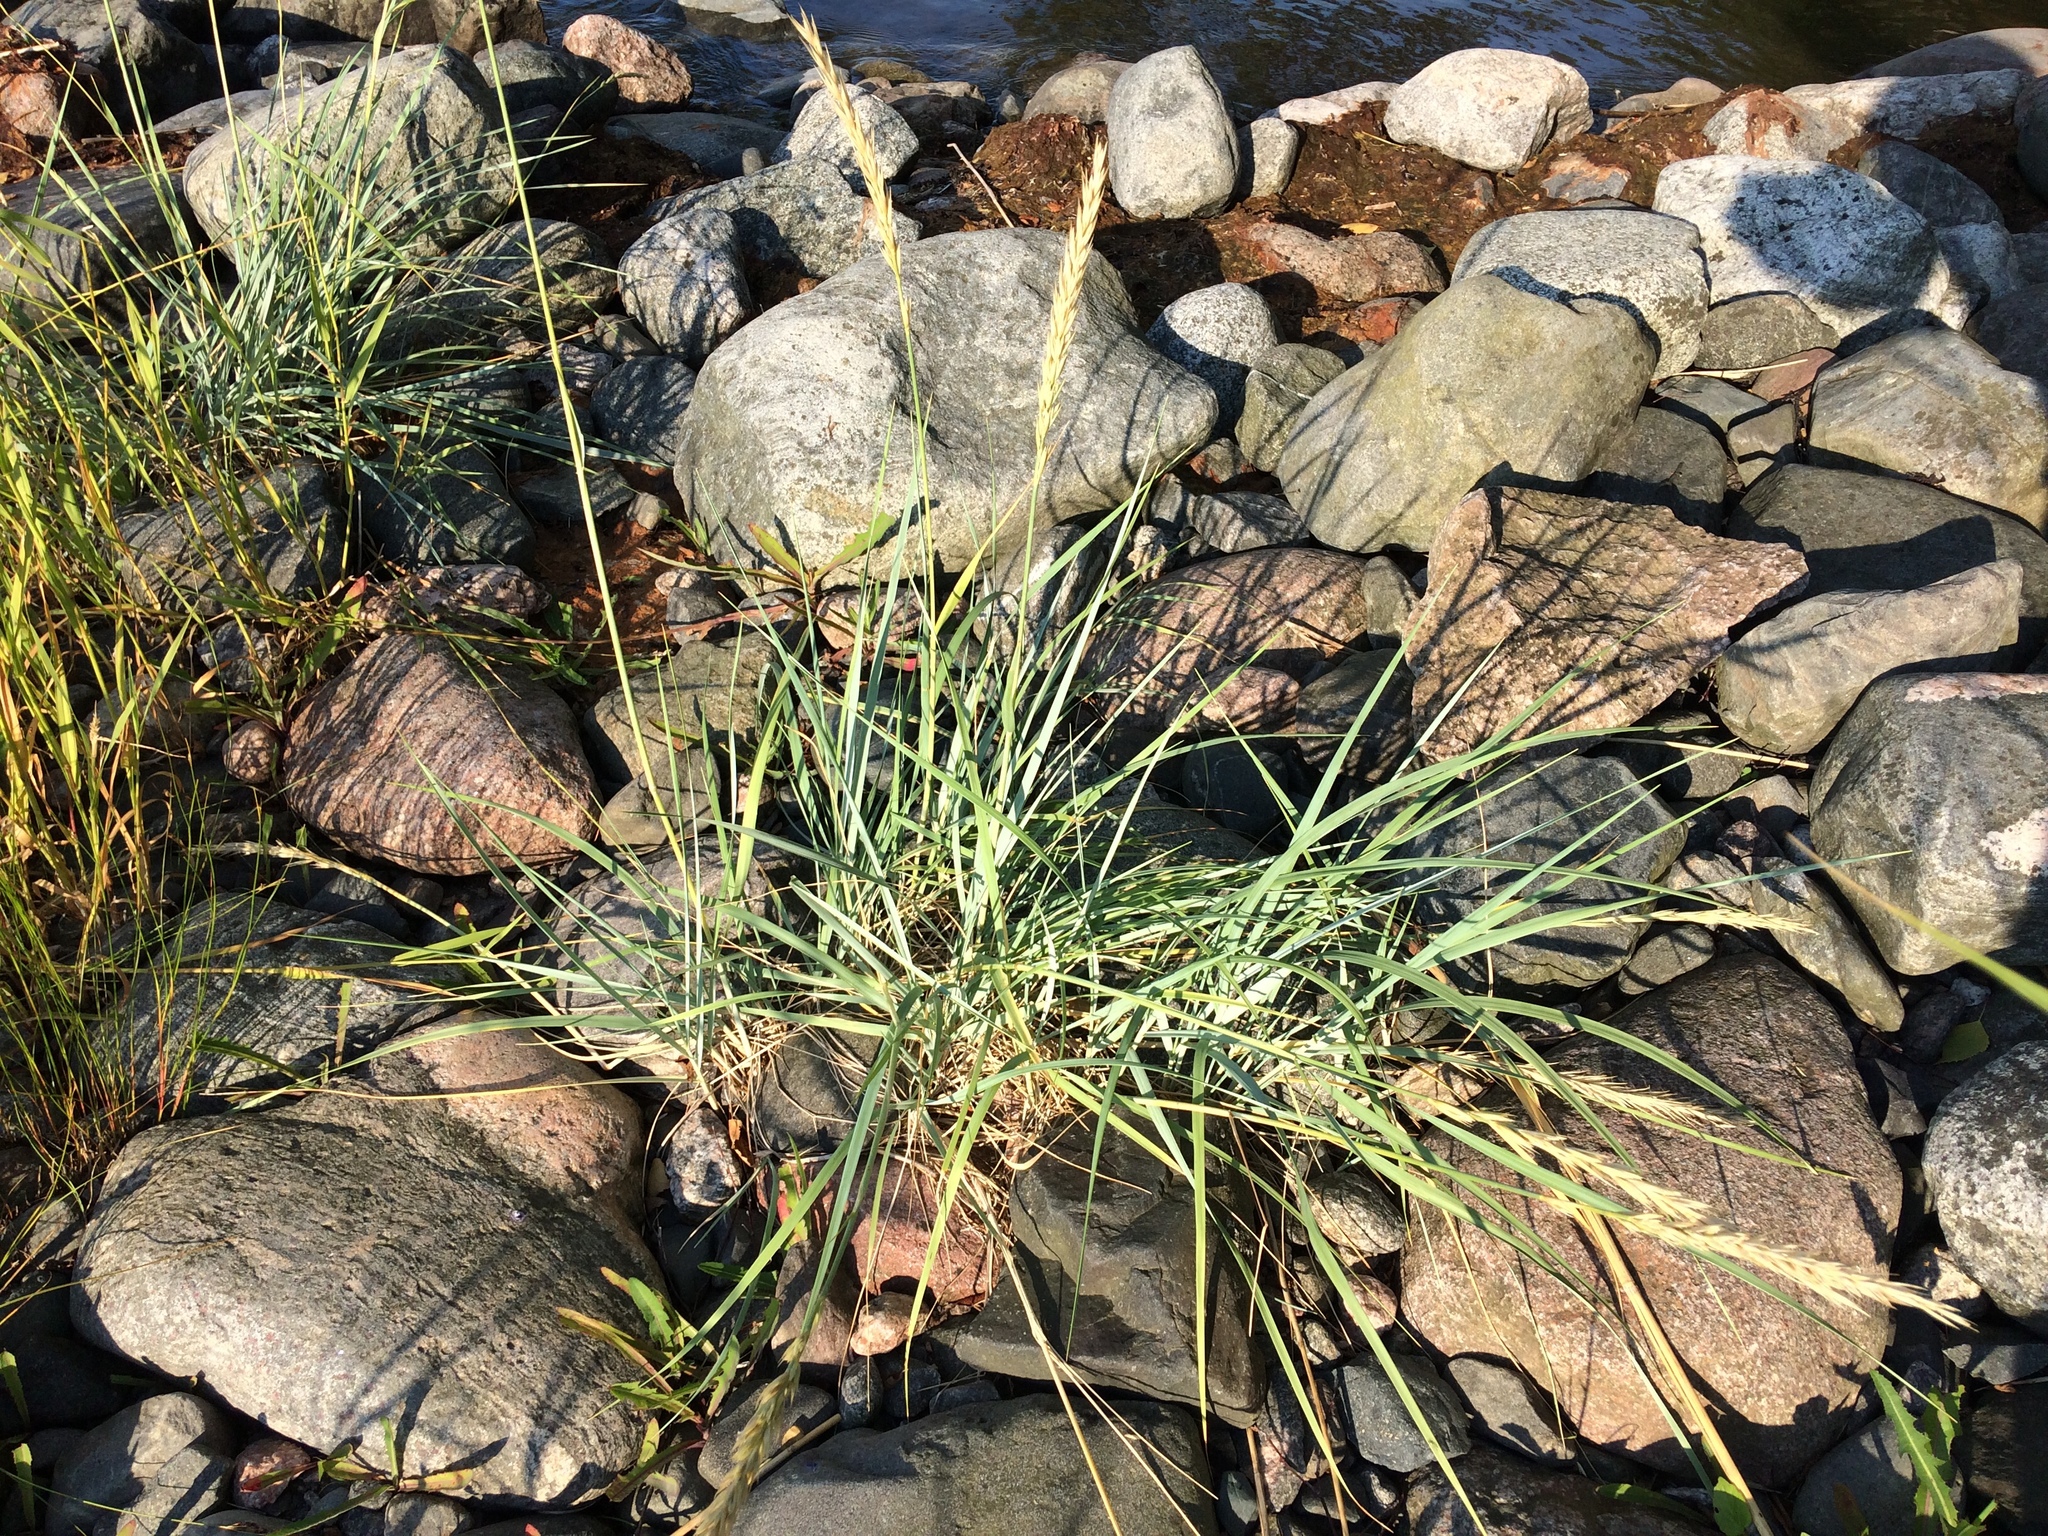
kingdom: Plantae
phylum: Tracheophyta
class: Liliopsida
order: Poales
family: Poaceae
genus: Leymus
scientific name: Leymus arenarius
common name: Lyme-grass
